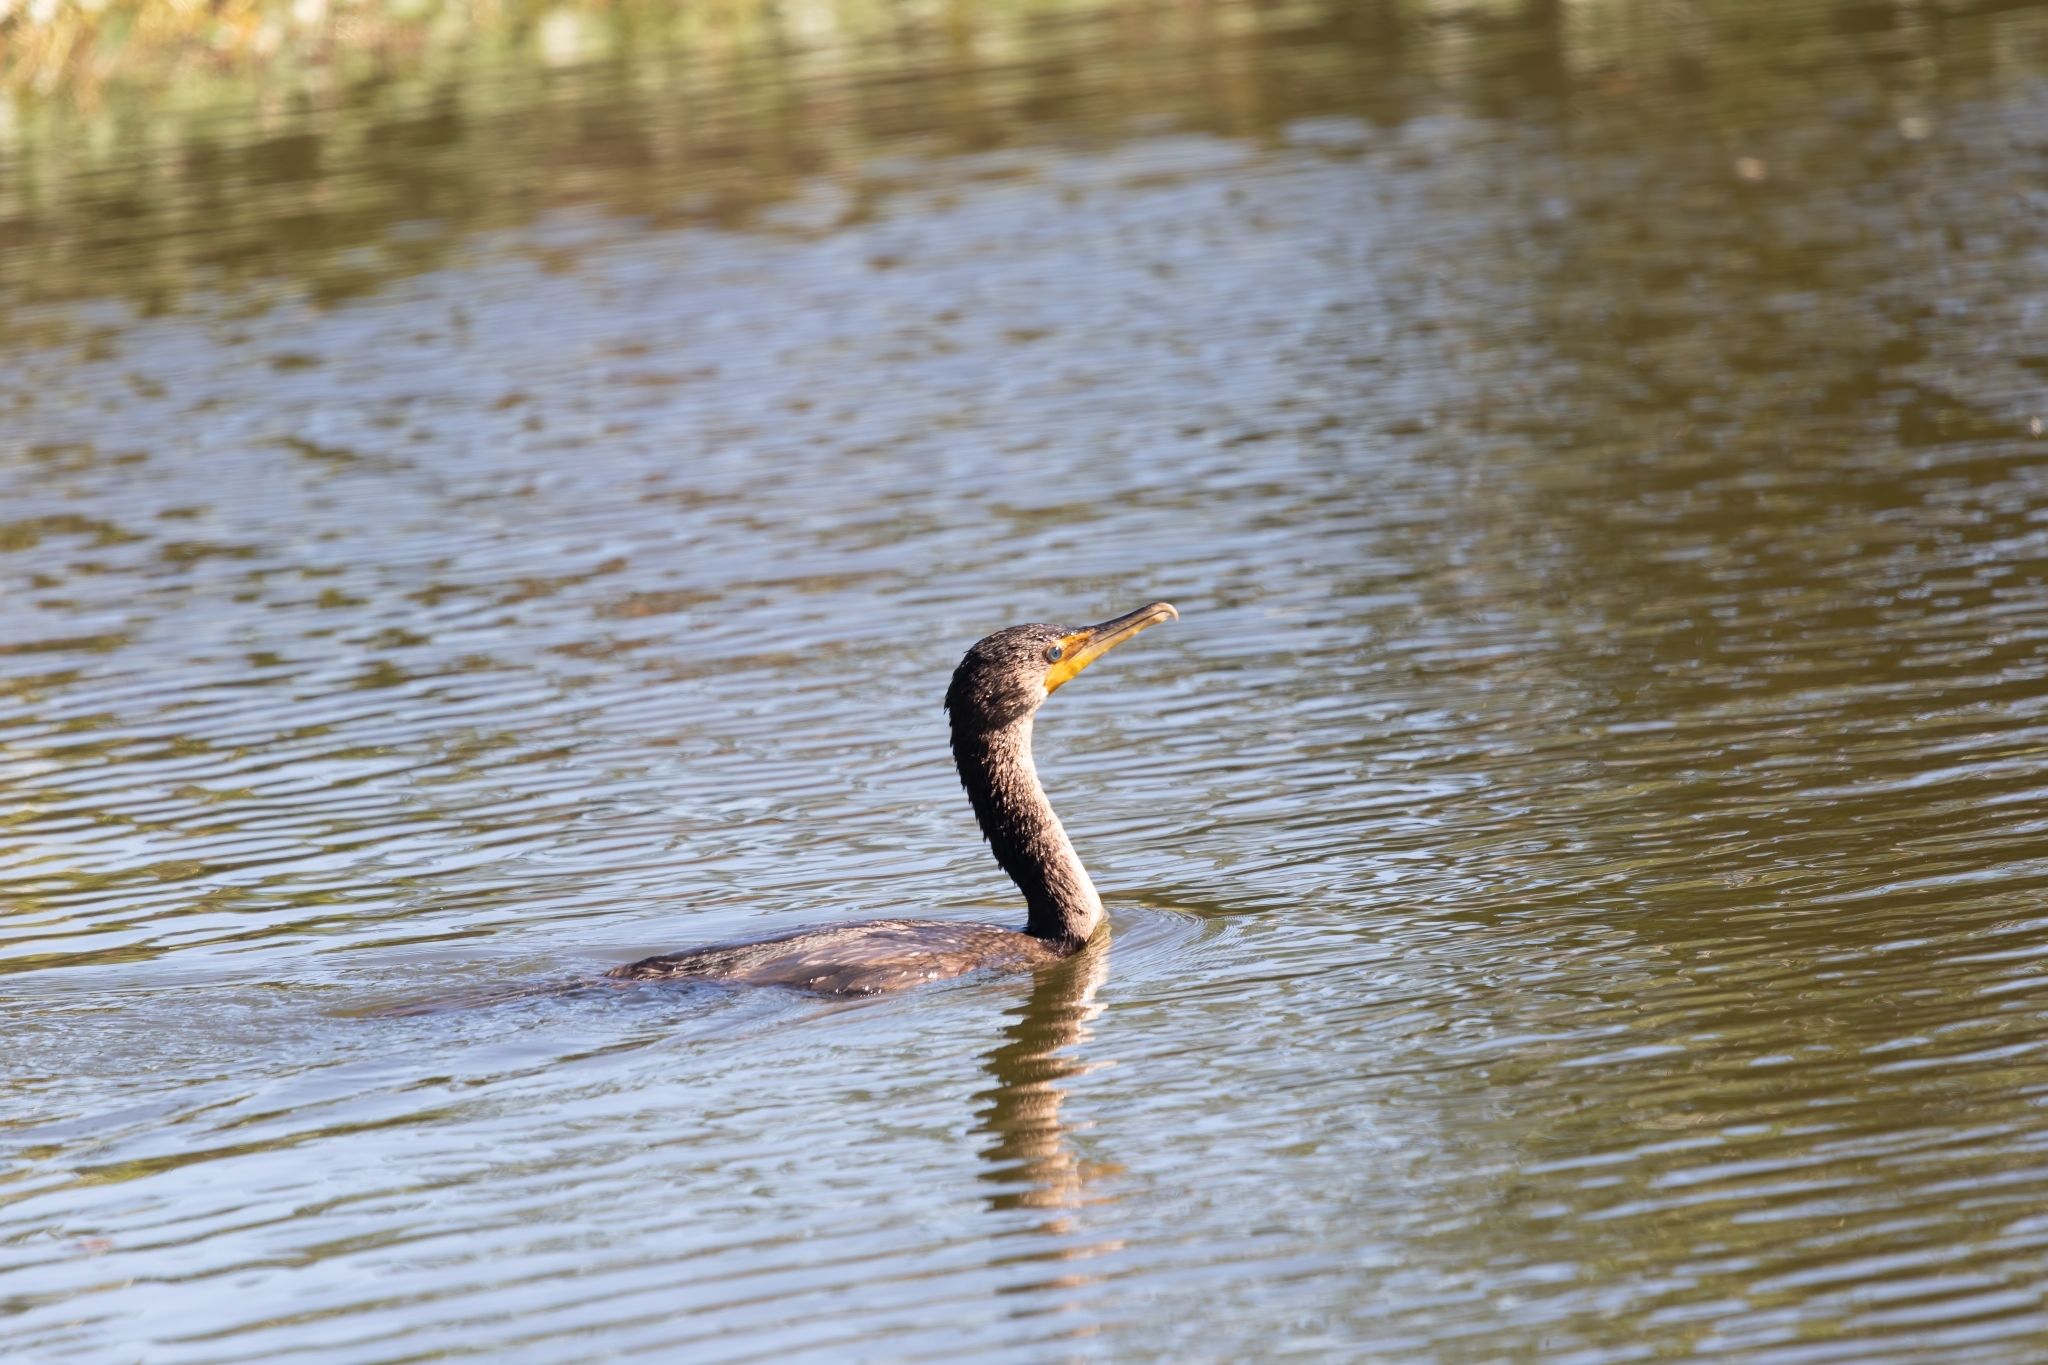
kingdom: Animalia
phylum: Chordata
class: Aves
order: Suliformes
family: Phalacrocoracidae
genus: Phalacrocorax
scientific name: Phalacrocorax auritus
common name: Double-crested cormorant
